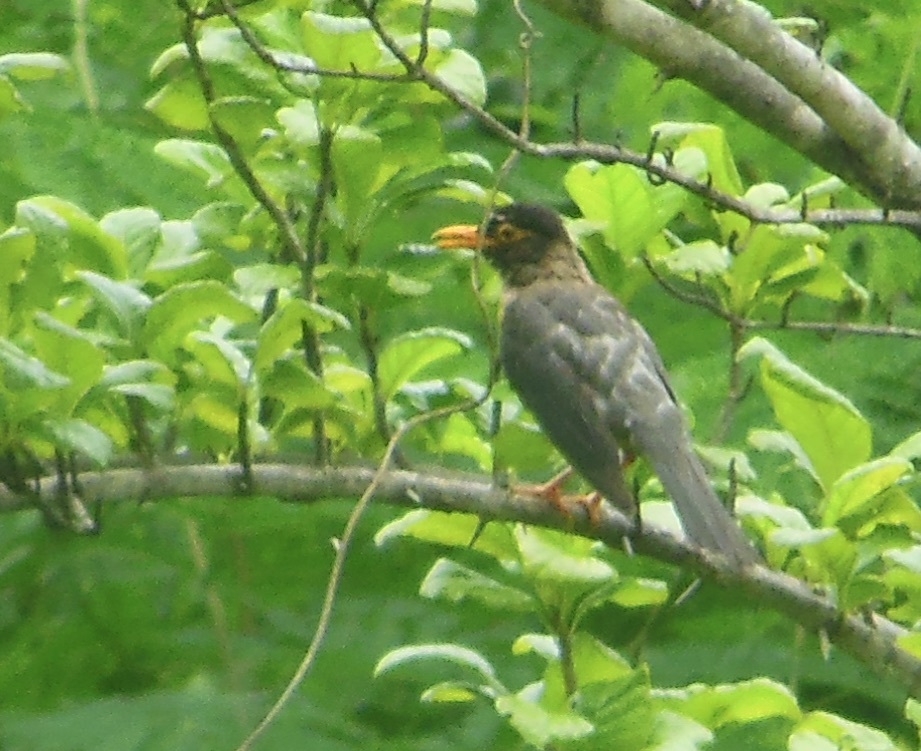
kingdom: Animalia
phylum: Chordata
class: Aves
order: Passeriformes
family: Turdidae
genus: Turdus
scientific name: Turdus simillimus
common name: Indian blackbird
